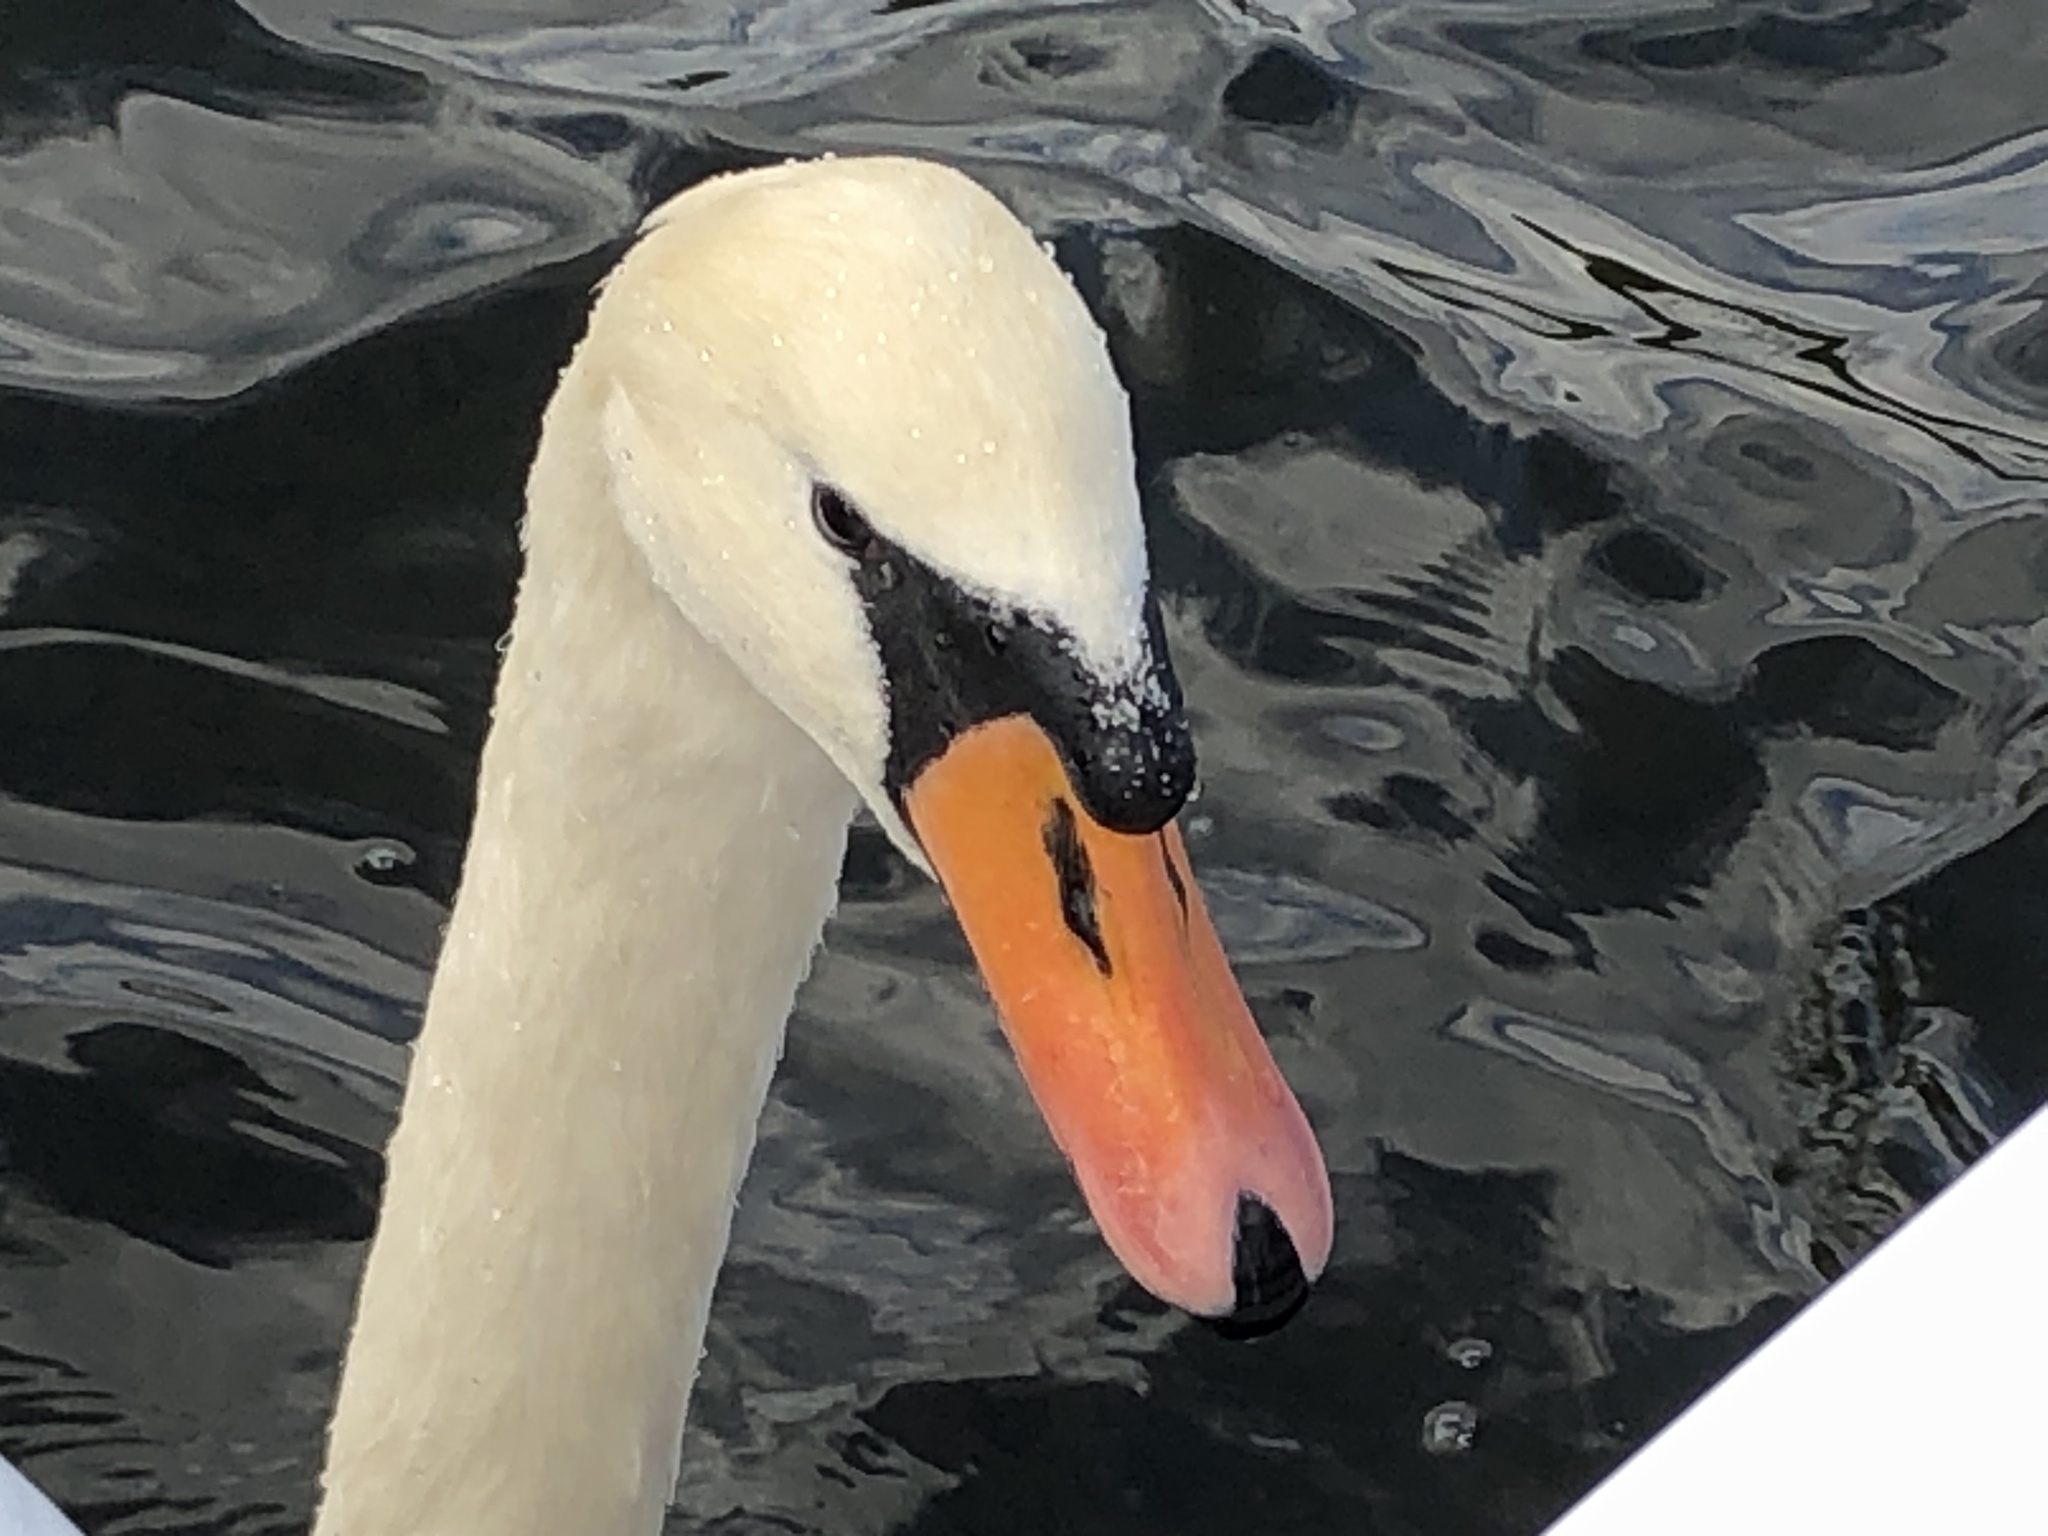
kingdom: Animalia
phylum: Chordata
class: Aves
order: Anseriformes
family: Anatidae
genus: Cygnus
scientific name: Cygnus olor
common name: Mute swan
